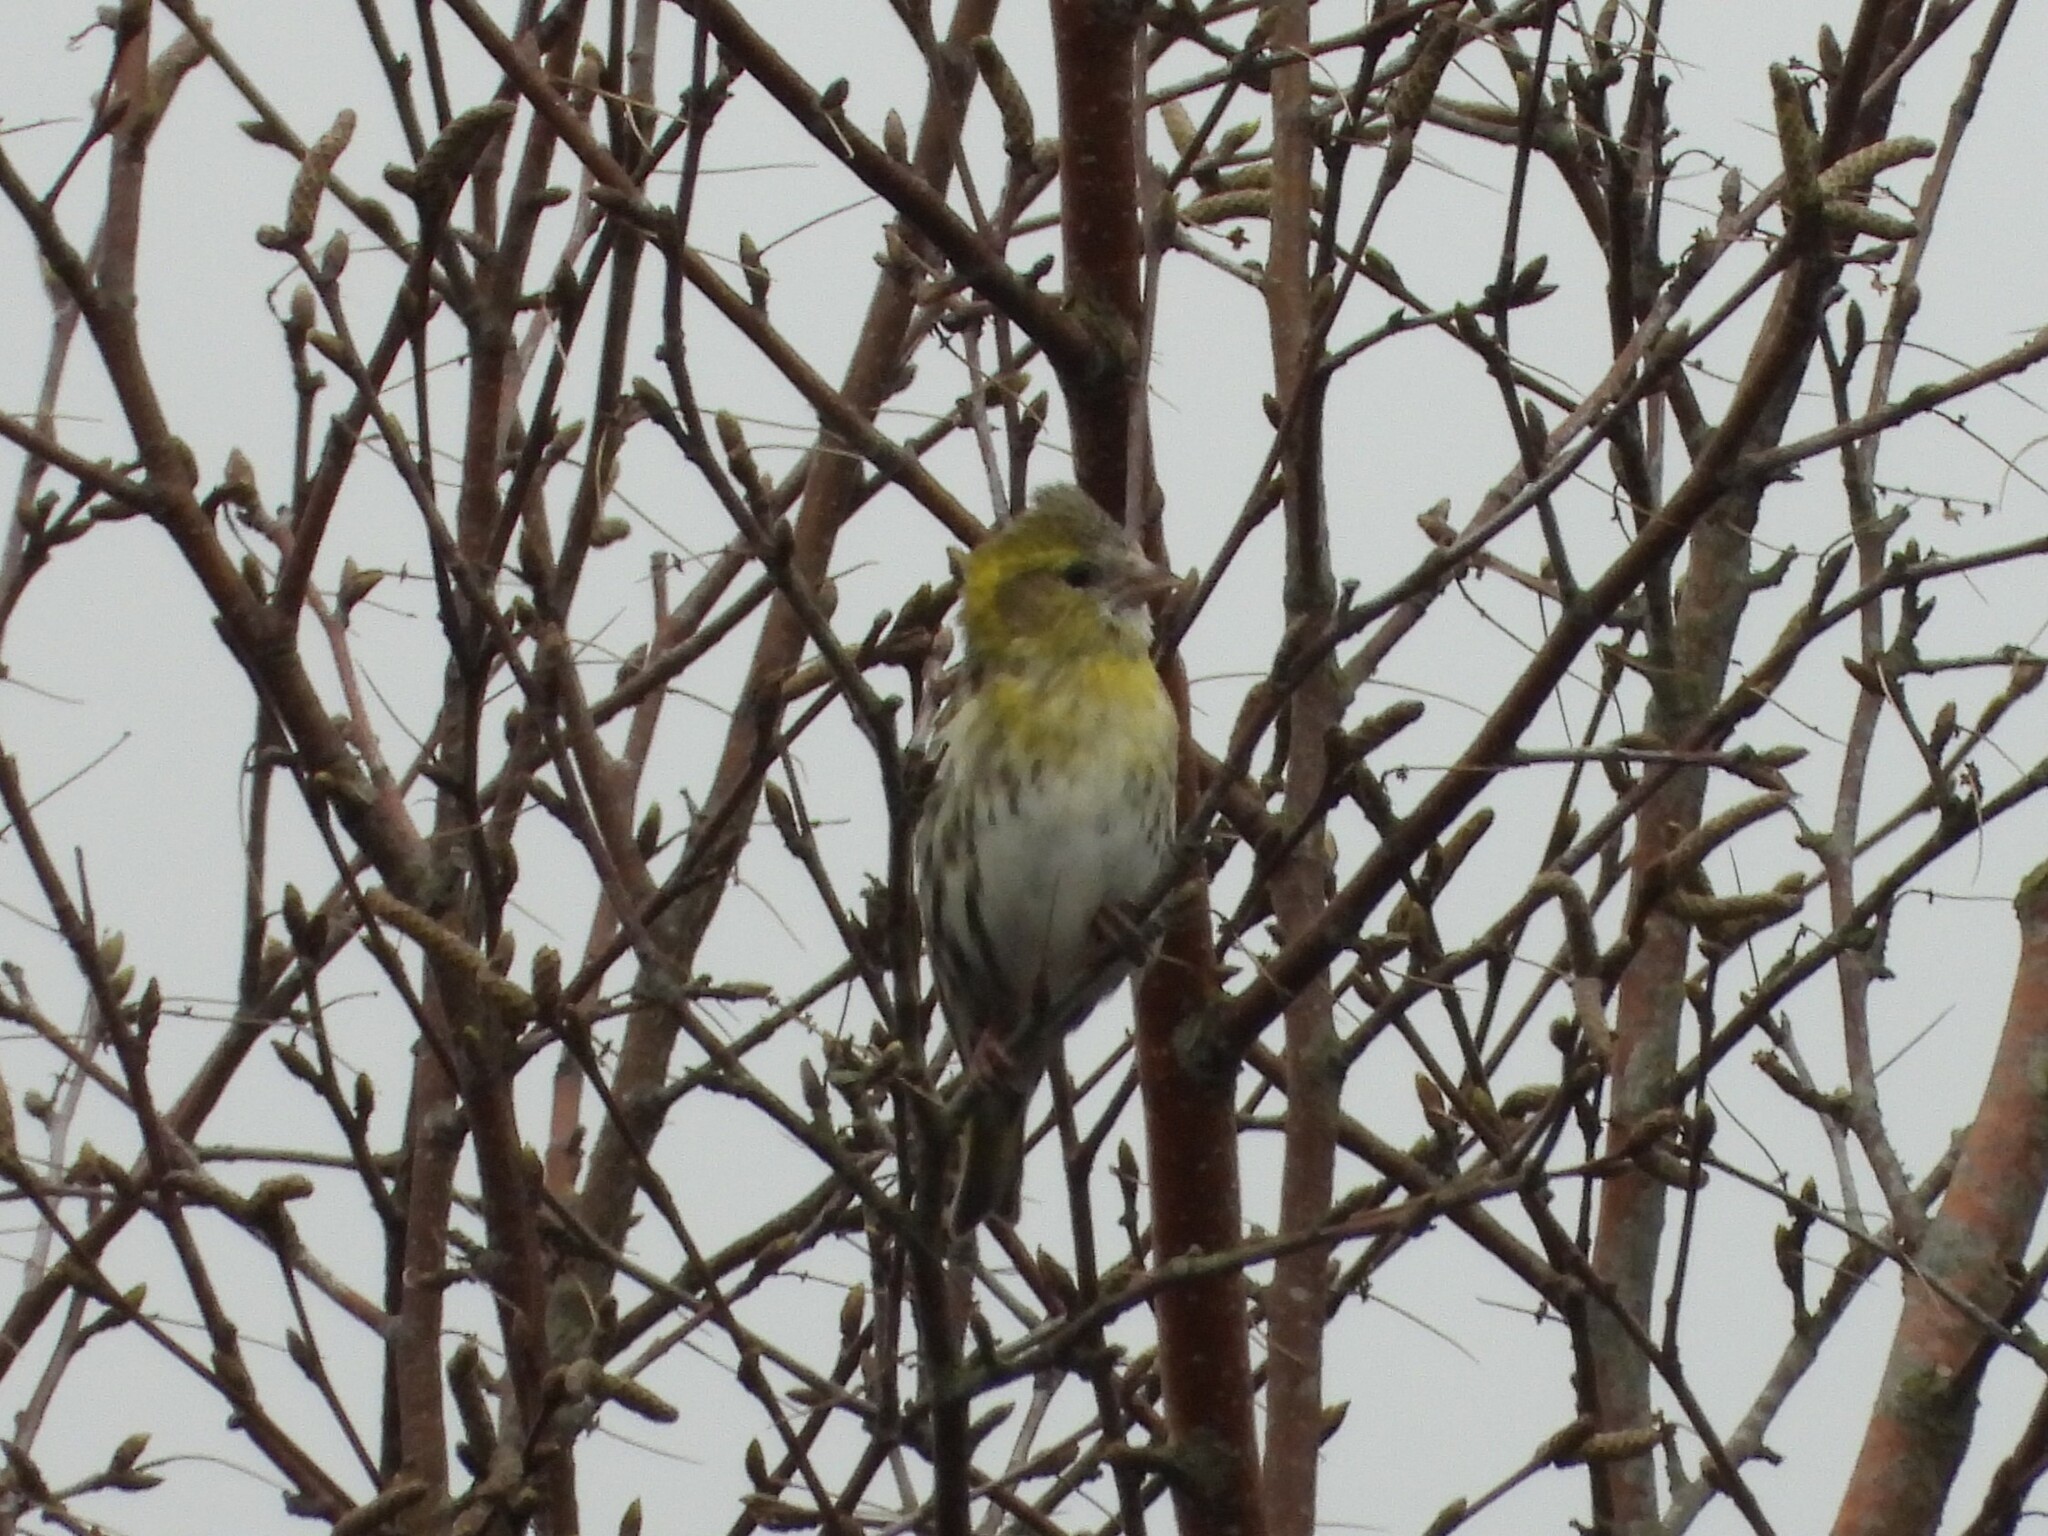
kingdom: Animalia
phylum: Chordata
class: Aves
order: Passeriformes
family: Fringillidae
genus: Spinus
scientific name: Spinus spinus
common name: Eurasian siskin
